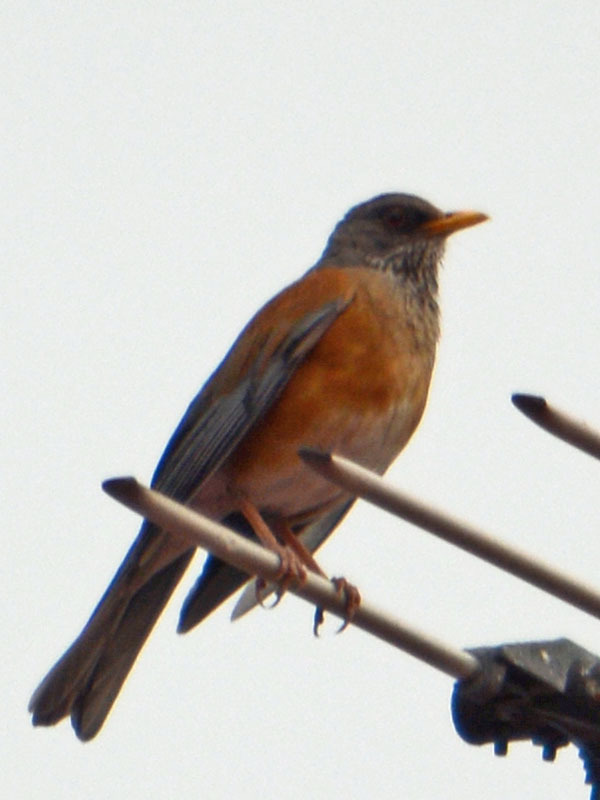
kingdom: Animalia
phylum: Chordata
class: Aves
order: Passeriformes
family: Turdidae
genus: Turdus
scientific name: Turdus rufopalliatus
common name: Rufous-backed robin
